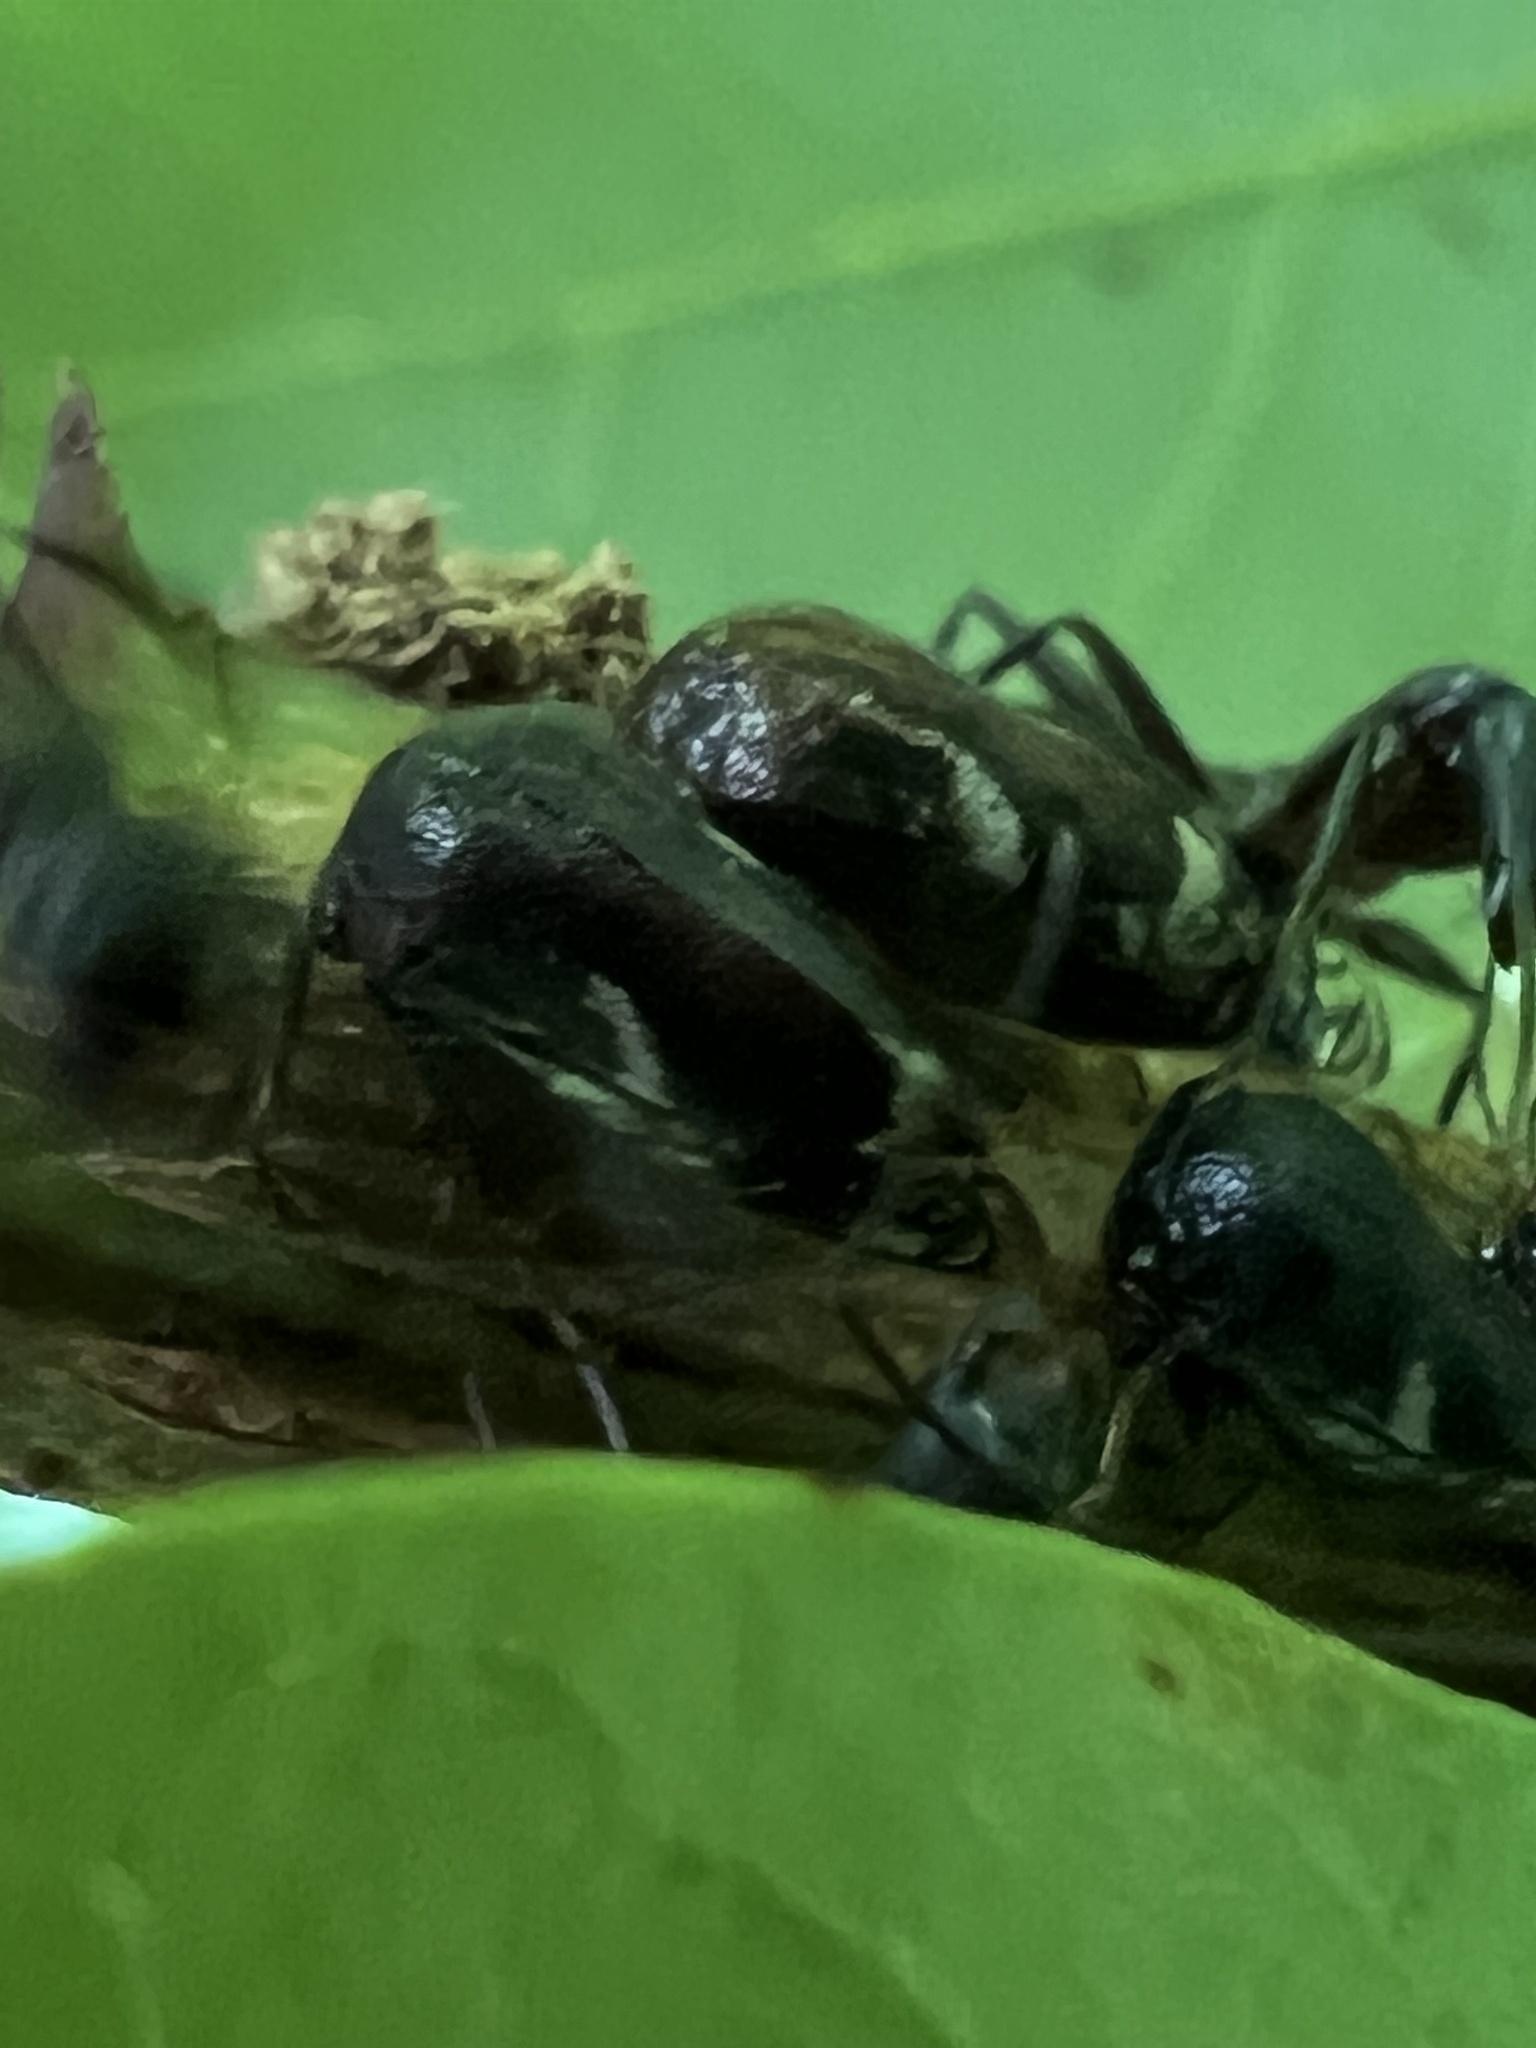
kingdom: Animalia
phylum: Arthropoda
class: Insecta
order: Hemiptera
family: Membracidae
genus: Vanduzea
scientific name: Vanduzea arquata
